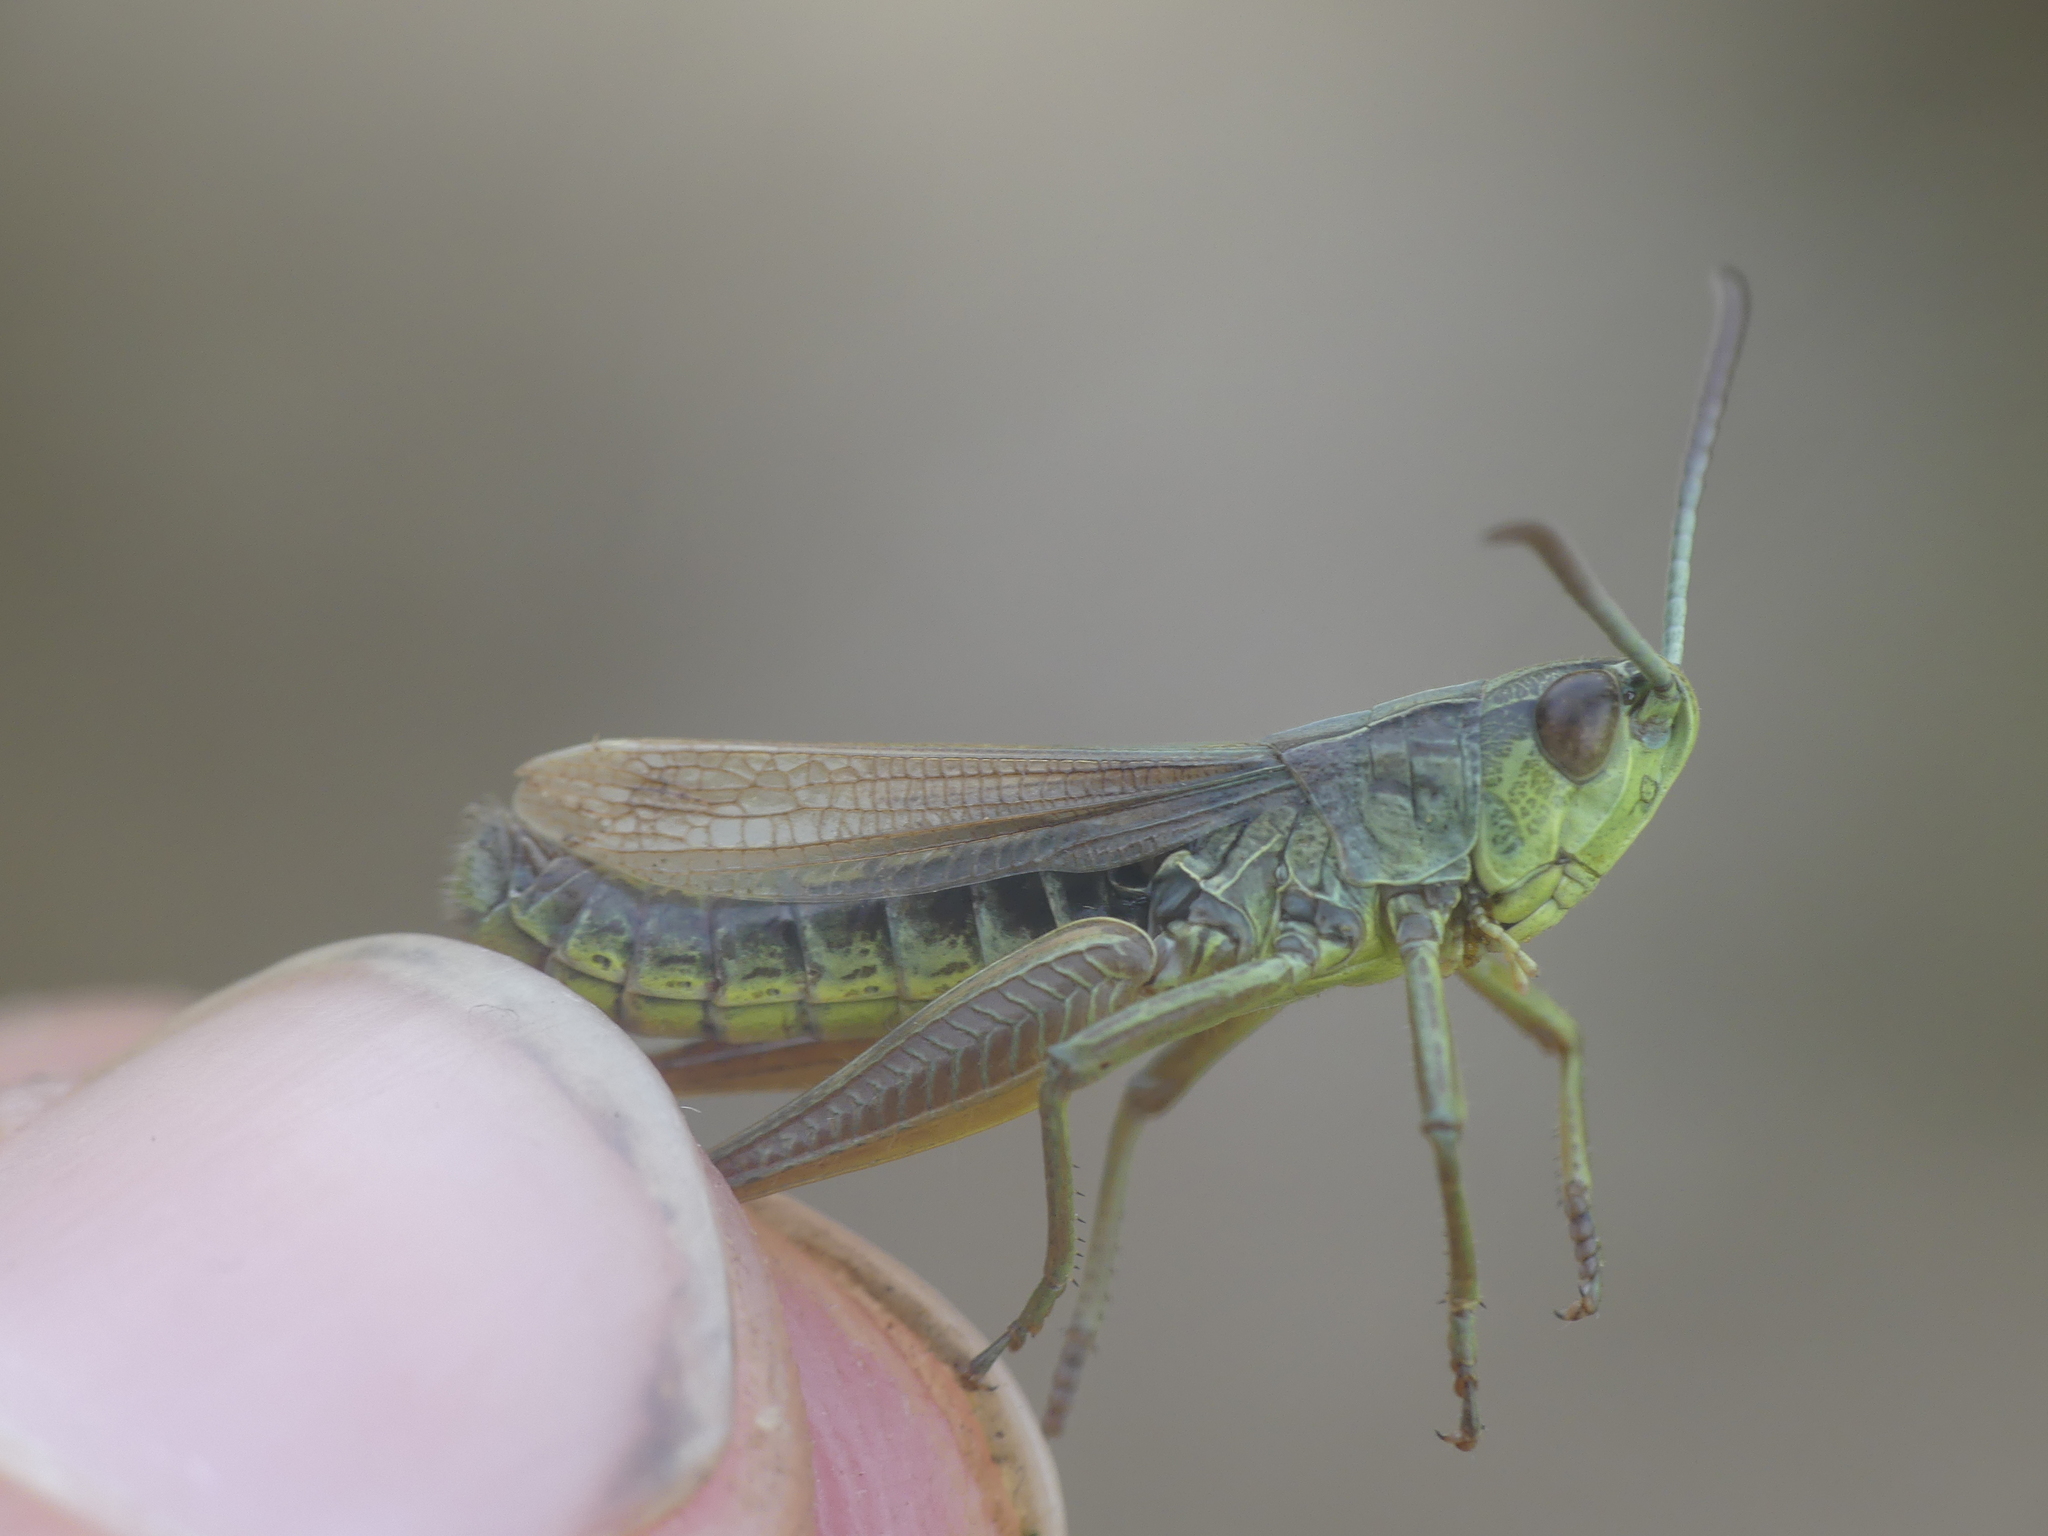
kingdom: Animalia
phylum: Arthropoda
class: Insecta
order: Orthoptera
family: Acrididae
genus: Pseudochorthippus
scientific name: Pseudochorthippus parallelus
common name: Meadow grasshopper
